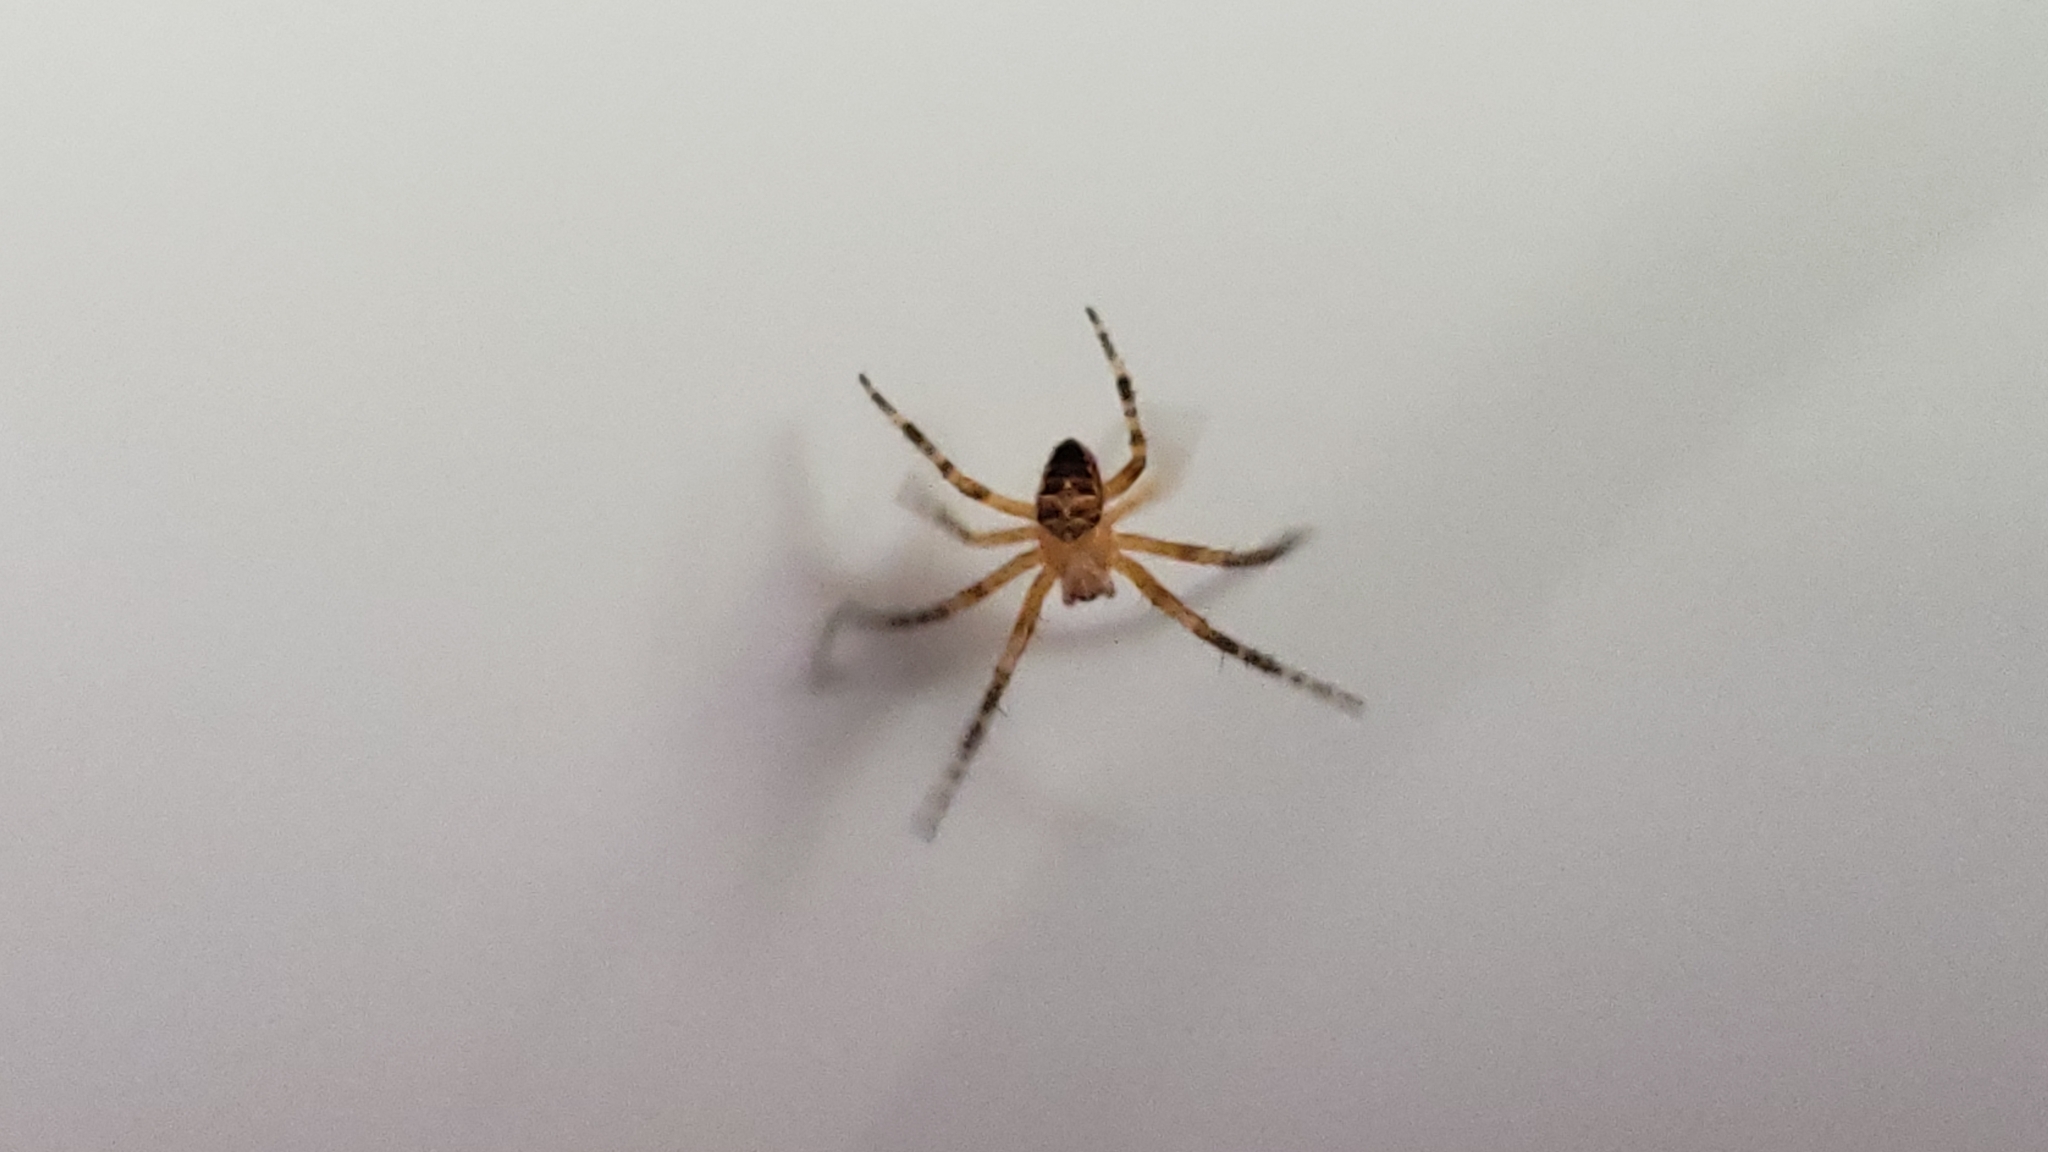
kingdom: Animalia
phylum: Arthropoda
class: Arachnida
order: Araneae
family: Araneidae
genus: Araneus
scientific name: Araneus diadematus
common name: Cross orbweaver
